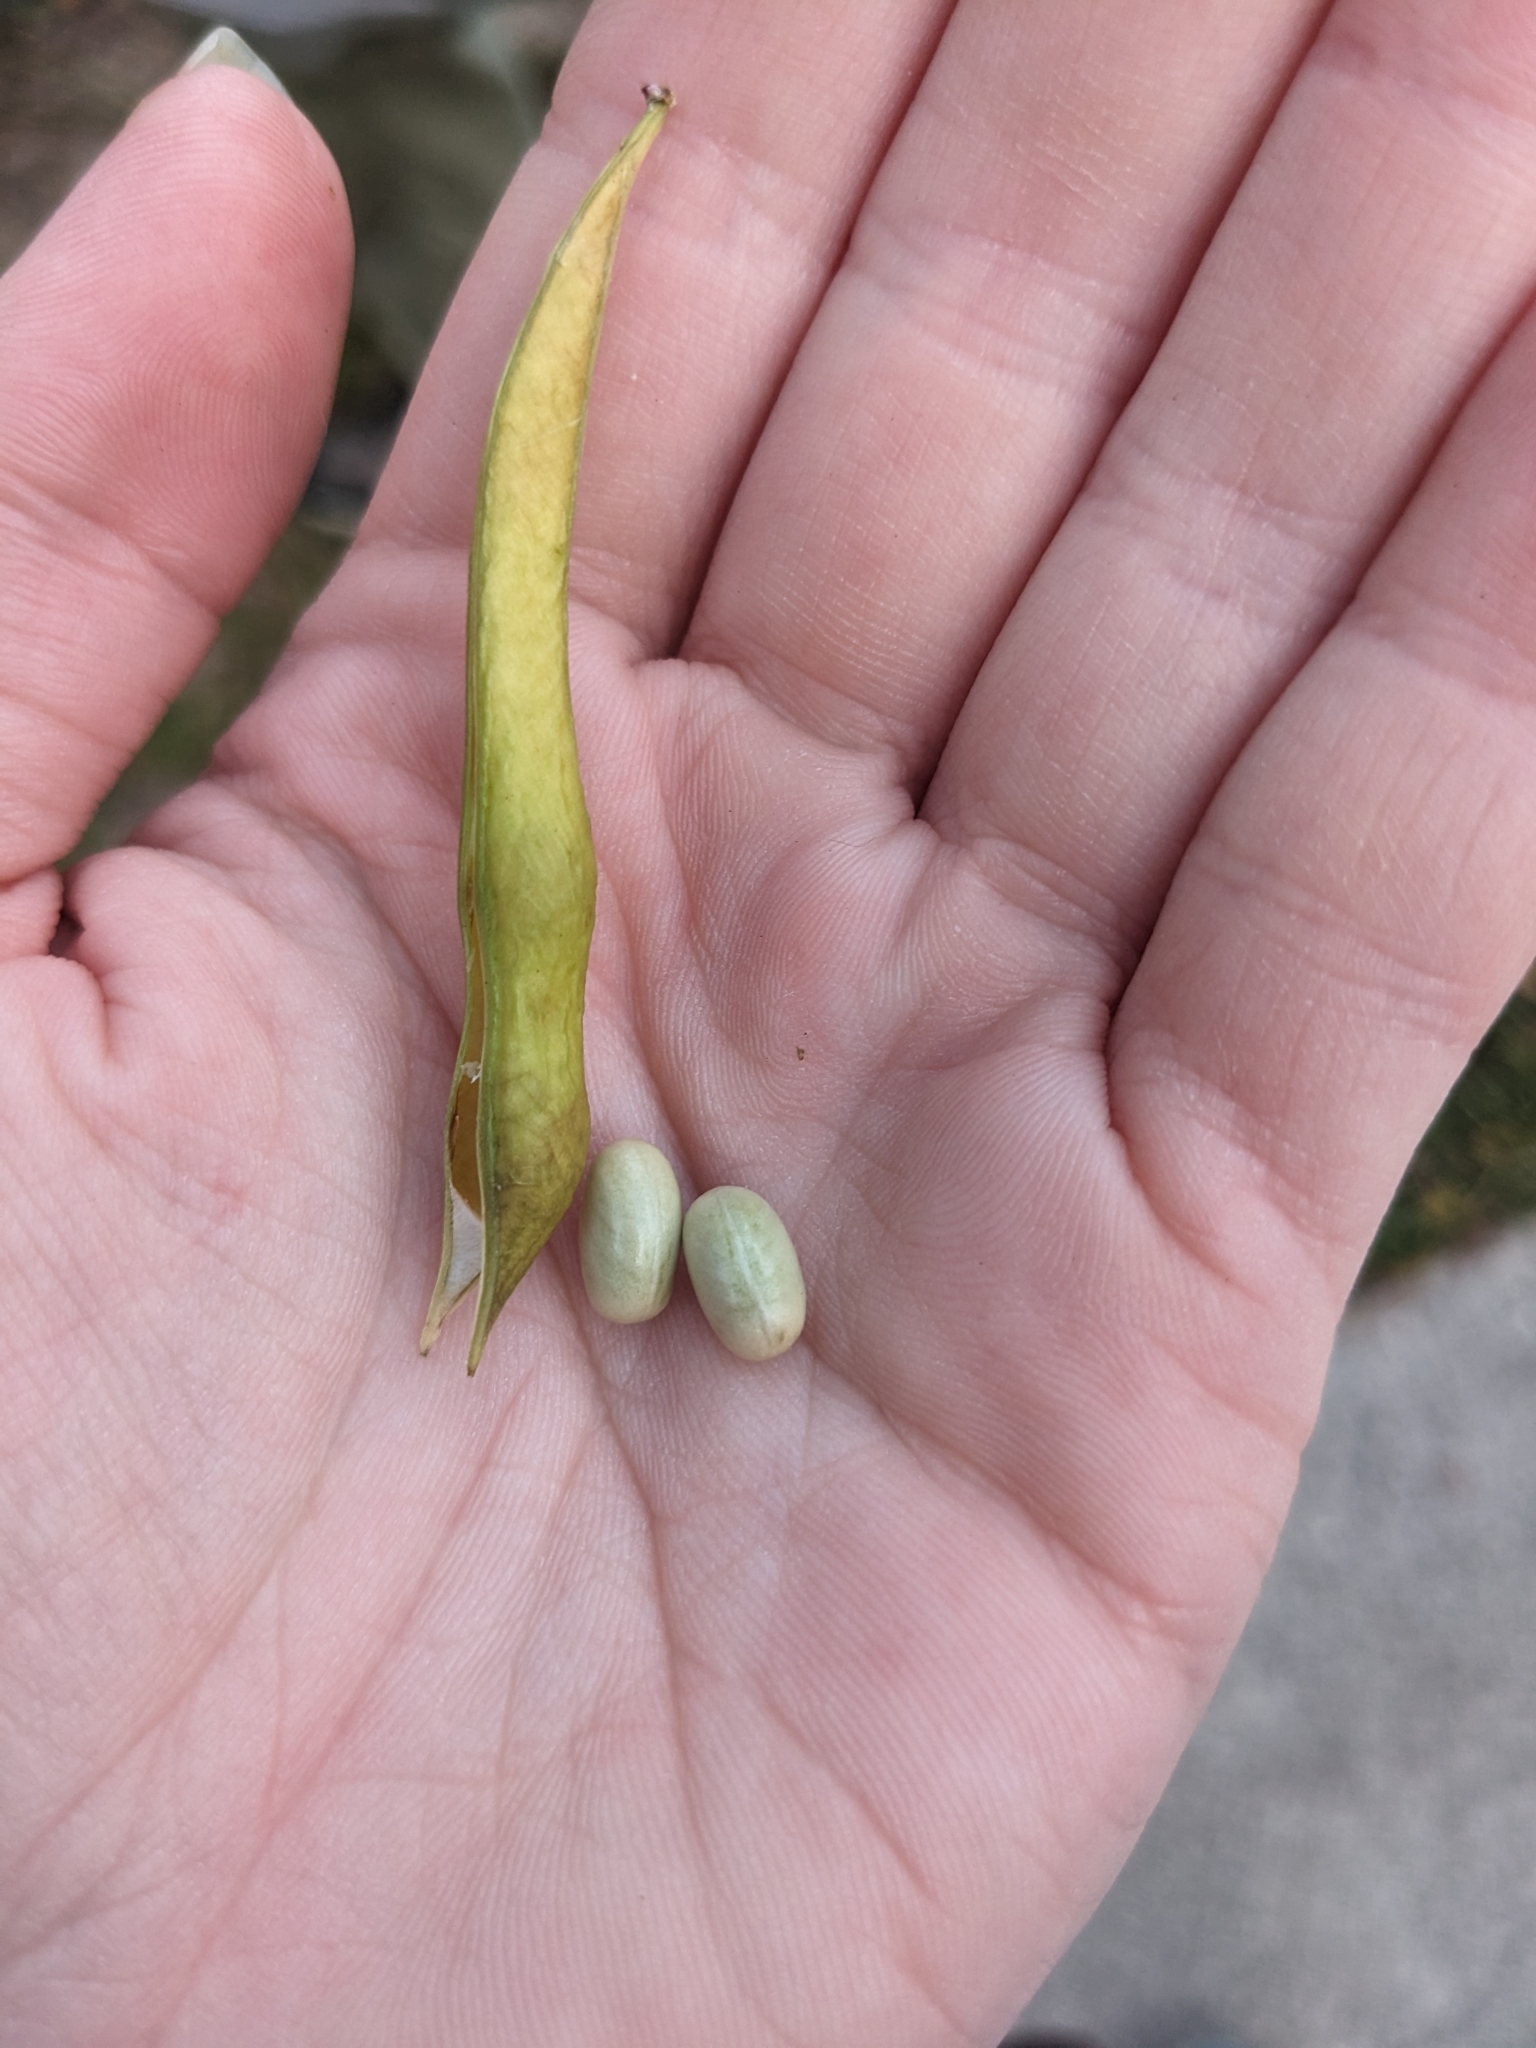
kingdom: Plantae
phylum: Tracheophyta
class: Magnoliopsida
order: Fabales
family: Fabaceae
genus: Apios
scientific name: Apios americana
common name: American potato-bean
